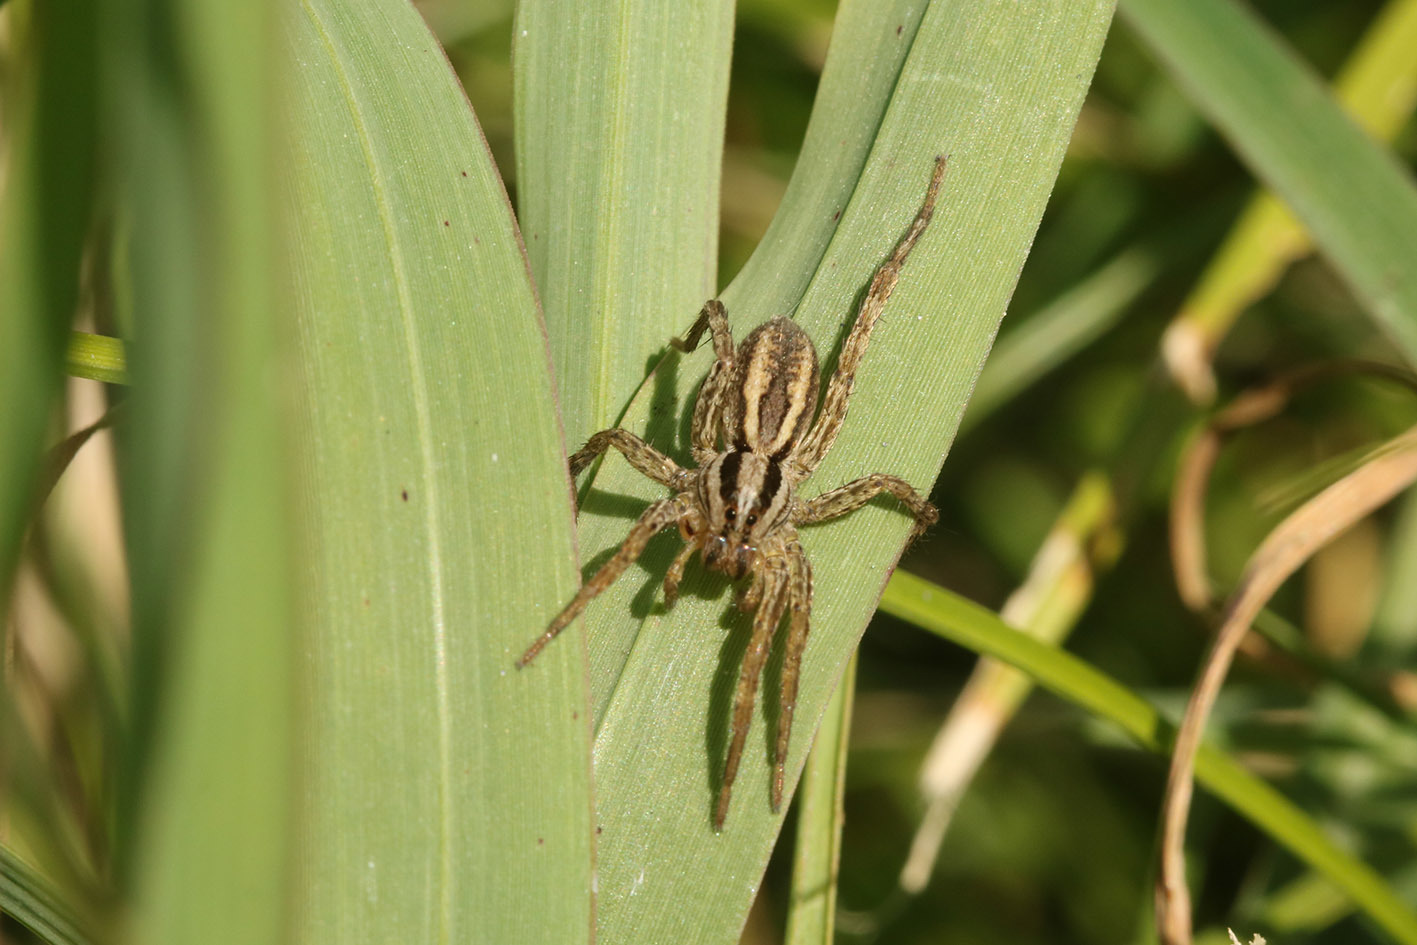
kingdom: Animalia
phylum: Arthropoda
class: Arachnida
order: Araneae
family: Lycosidae
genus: Hogna
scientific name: Hogna bivittata
